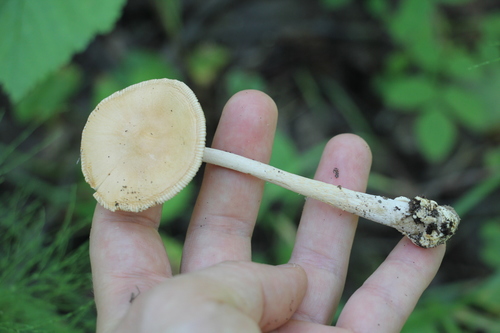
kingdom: Fungi
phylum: Basidiomycota
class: Agaricomycetes
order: Agaricales
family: Amanitaceae
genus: Amanita
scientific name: Amanita crocea
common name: Orange grisette
